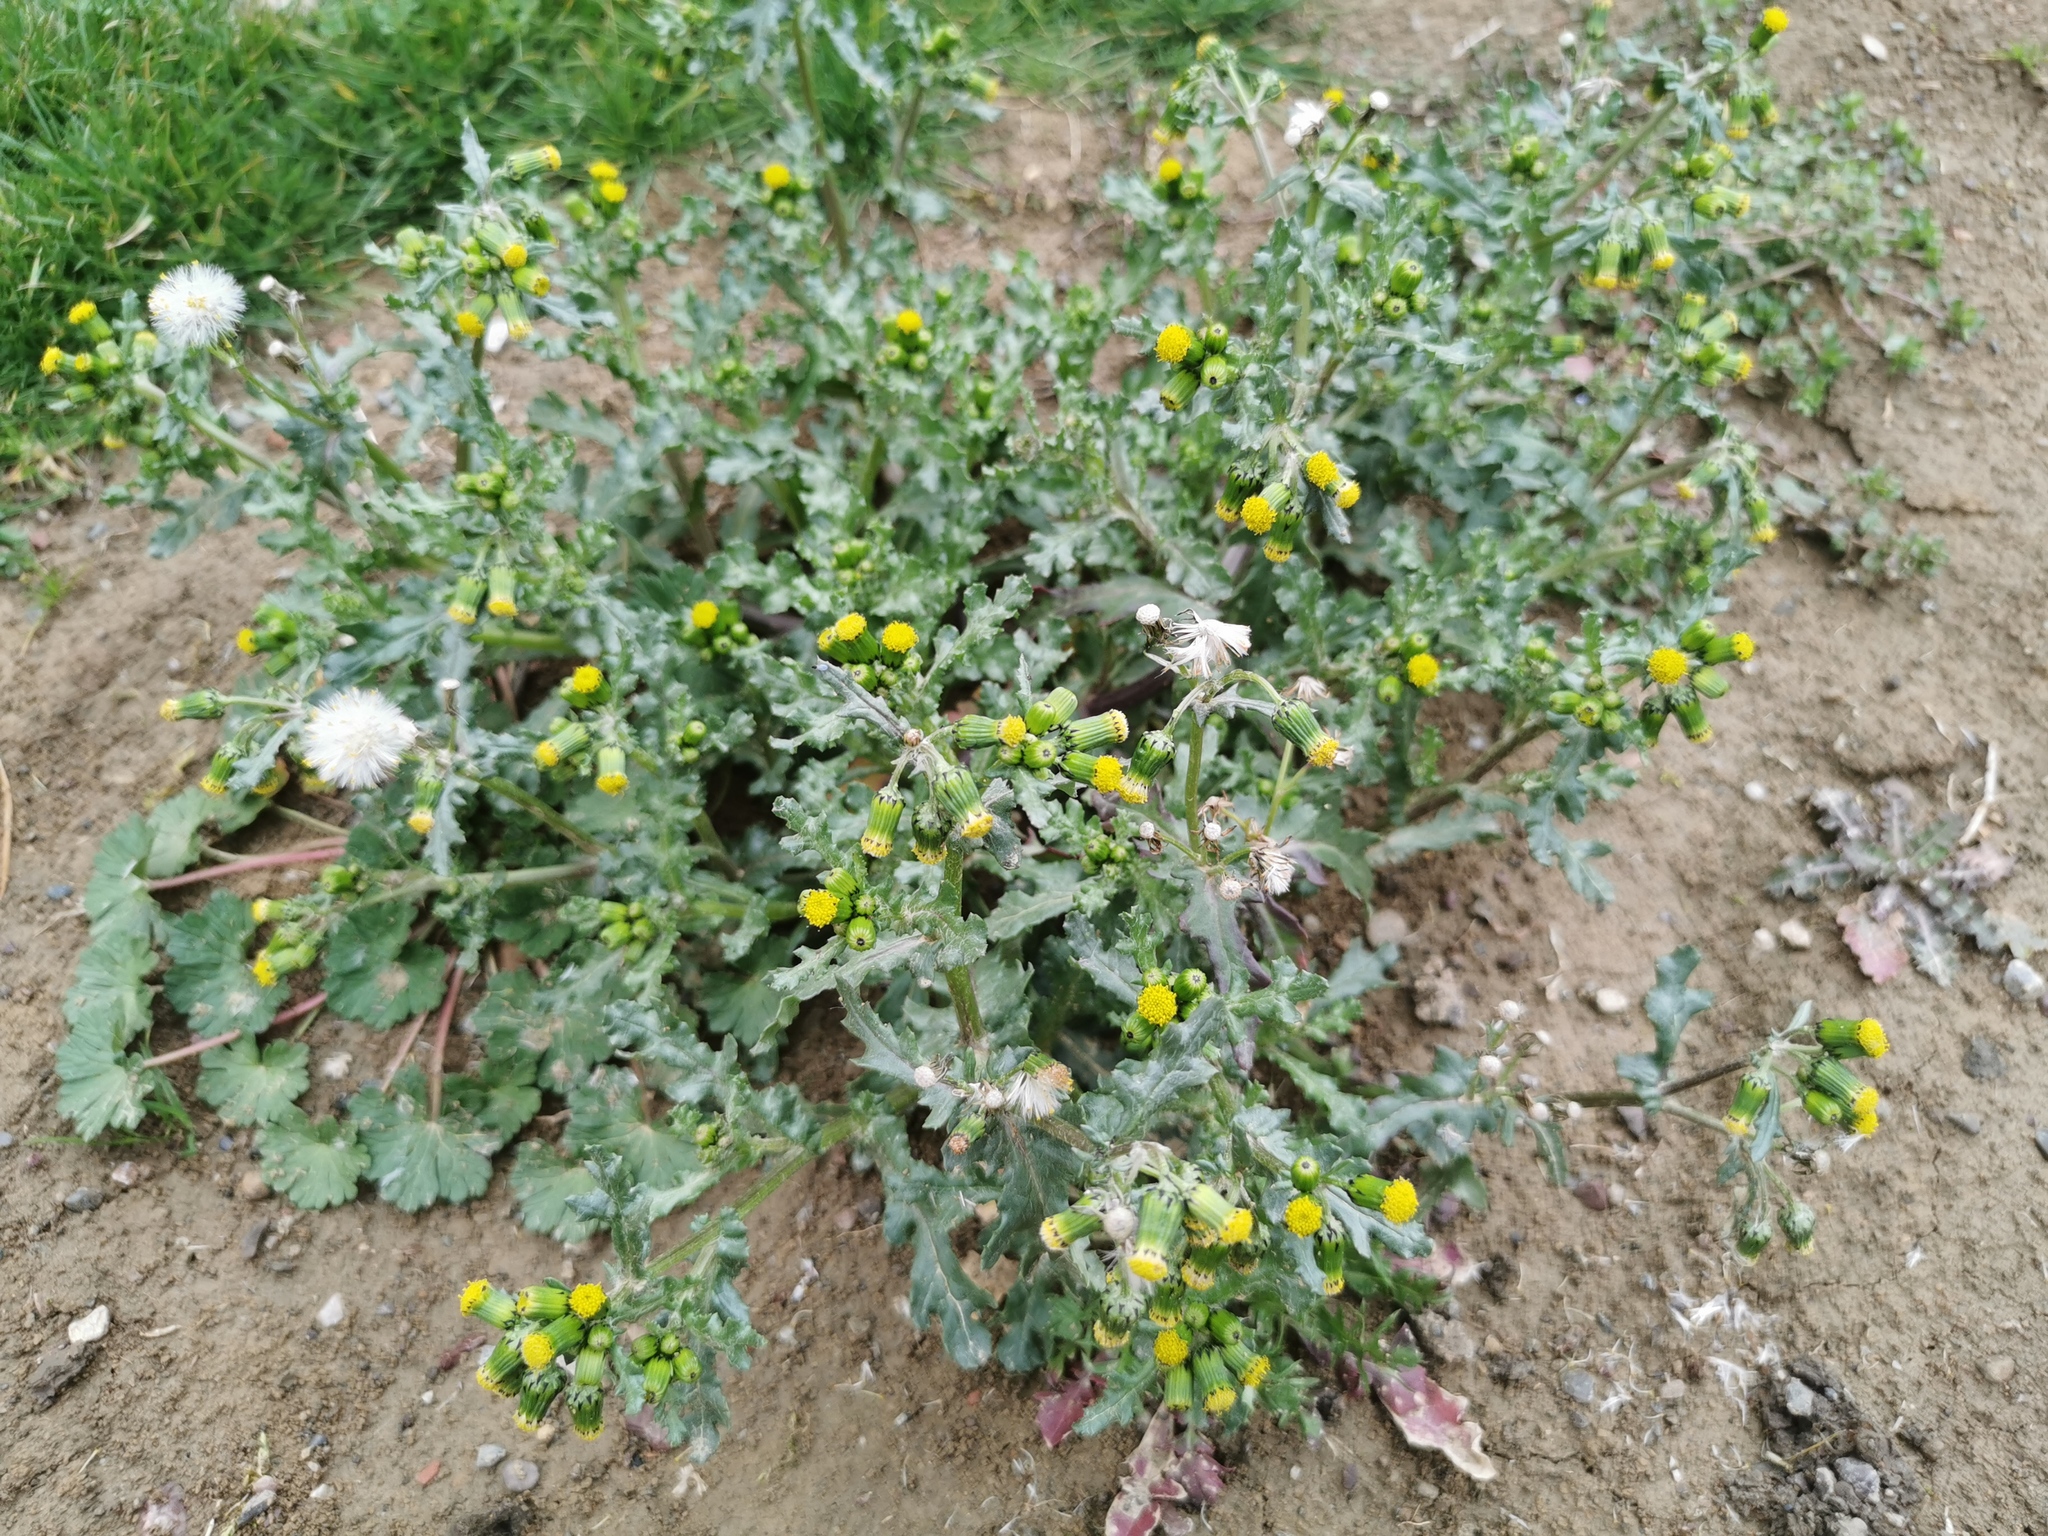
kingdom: Plantae
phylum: Tracheophyta
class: Magnoliopsida
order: Asterales
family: Asteraceae
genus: Senecio
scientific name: Senecio vulgaris
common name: Old-man-in-the-spring
